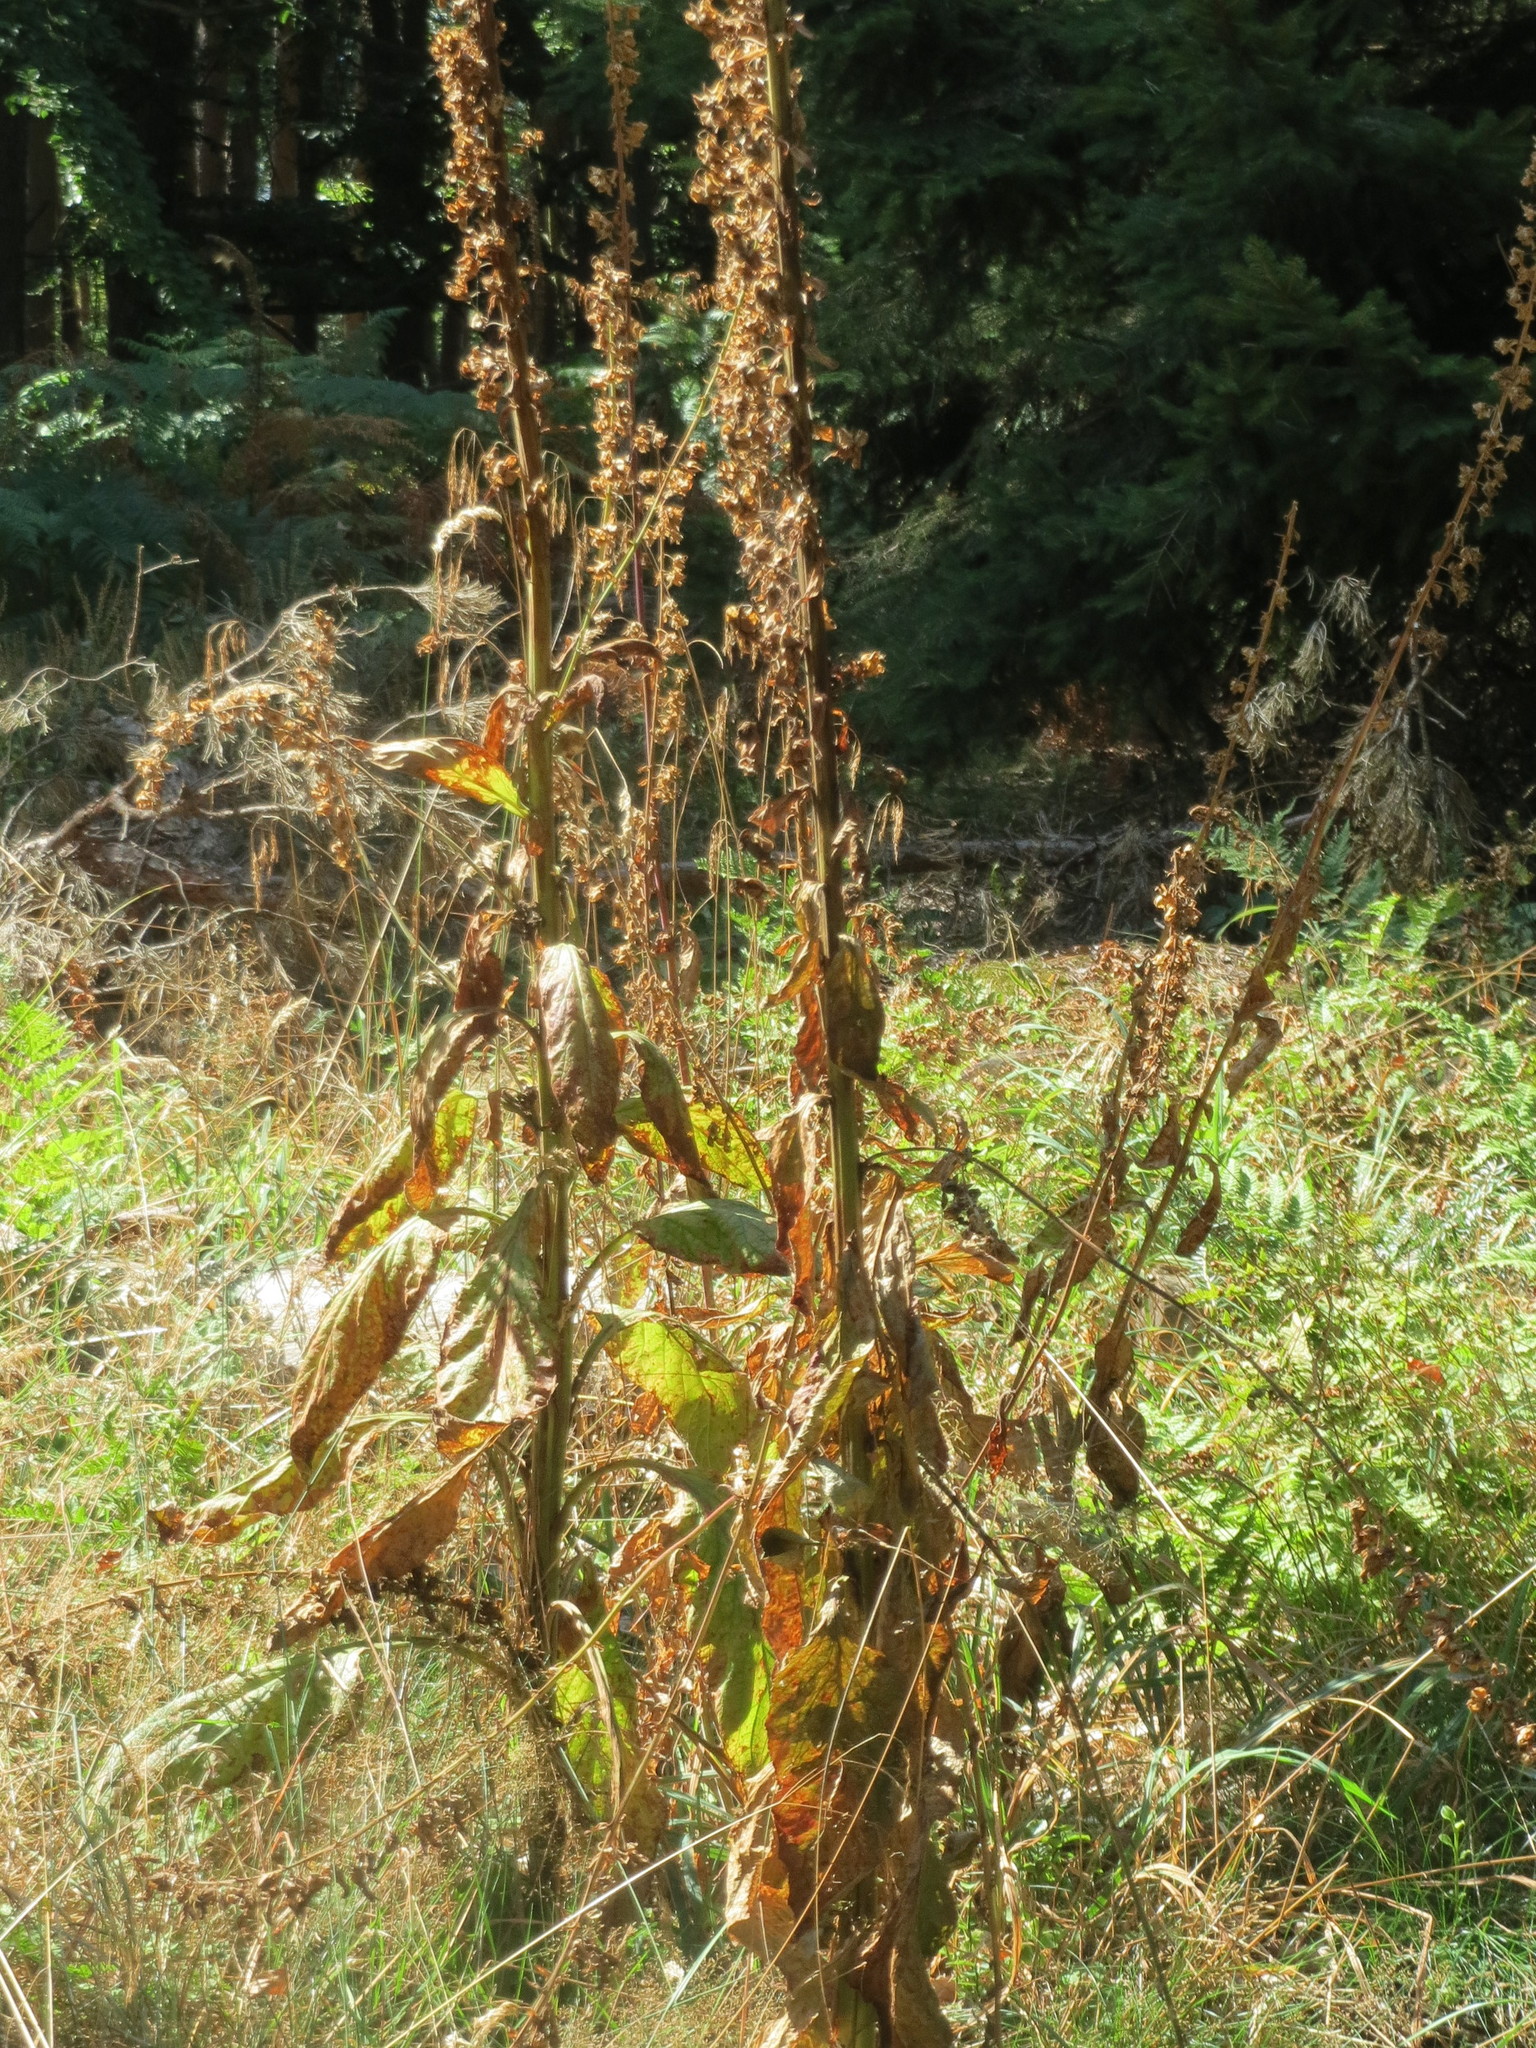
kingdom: Plantae
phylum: Tracheophyta
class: Magnoliopsida
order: Lamiales
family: Plantaginaceae
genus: Digitalis
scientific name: Digitalis purpurea
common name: Foxglove
